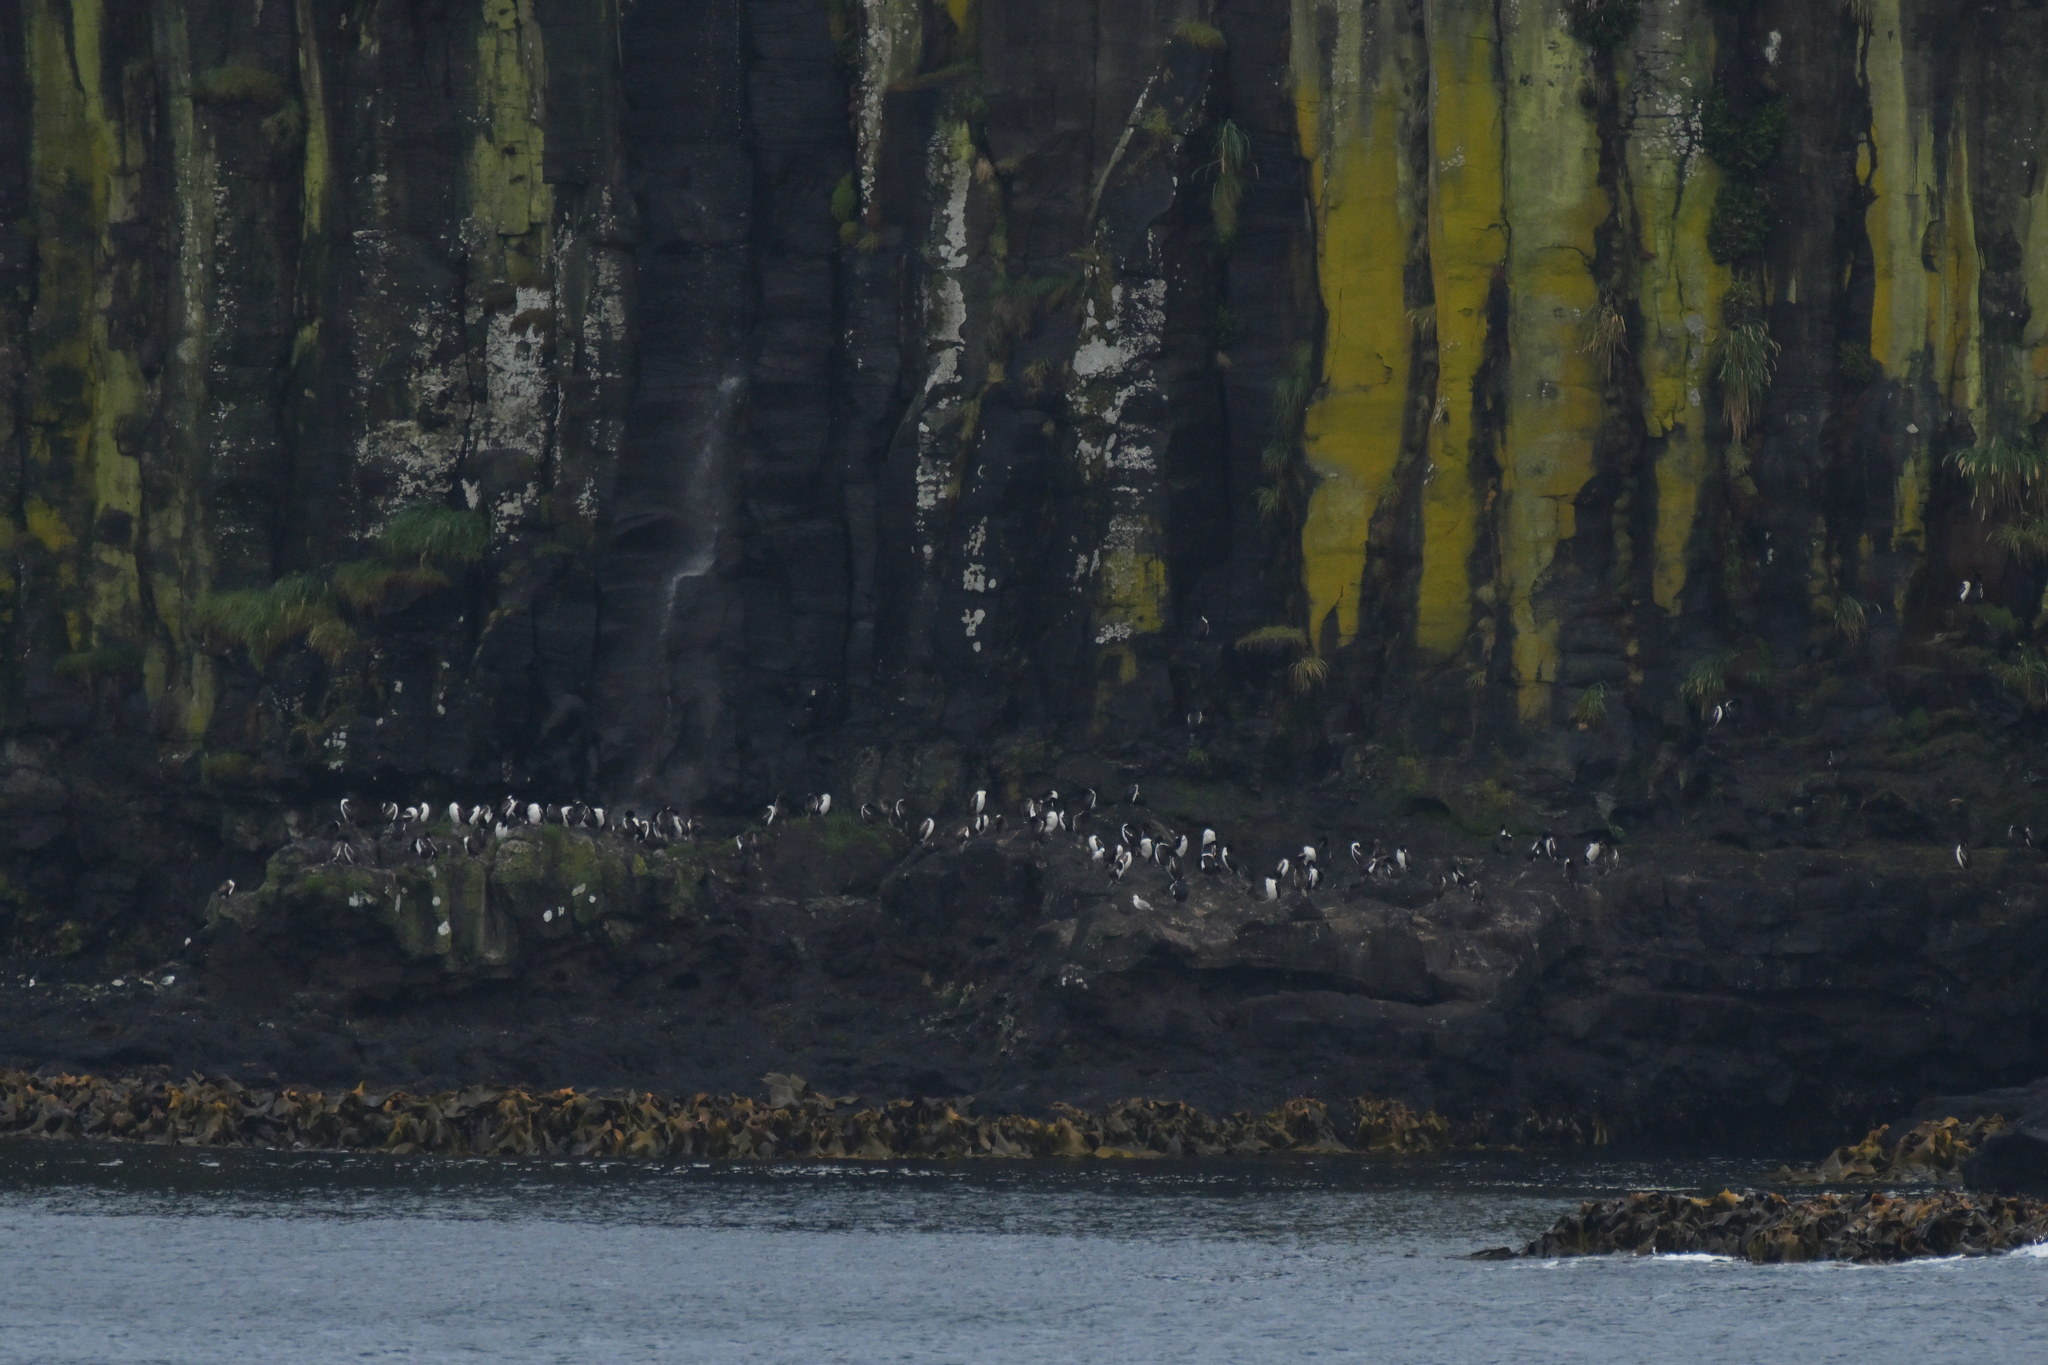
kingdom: Animalia
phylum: Chordata
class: Aves
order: Suliformes
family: Phalacrocoracidae
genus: Leucocarbo
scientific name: Leucocarbo colensoi
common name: Auckland shag
